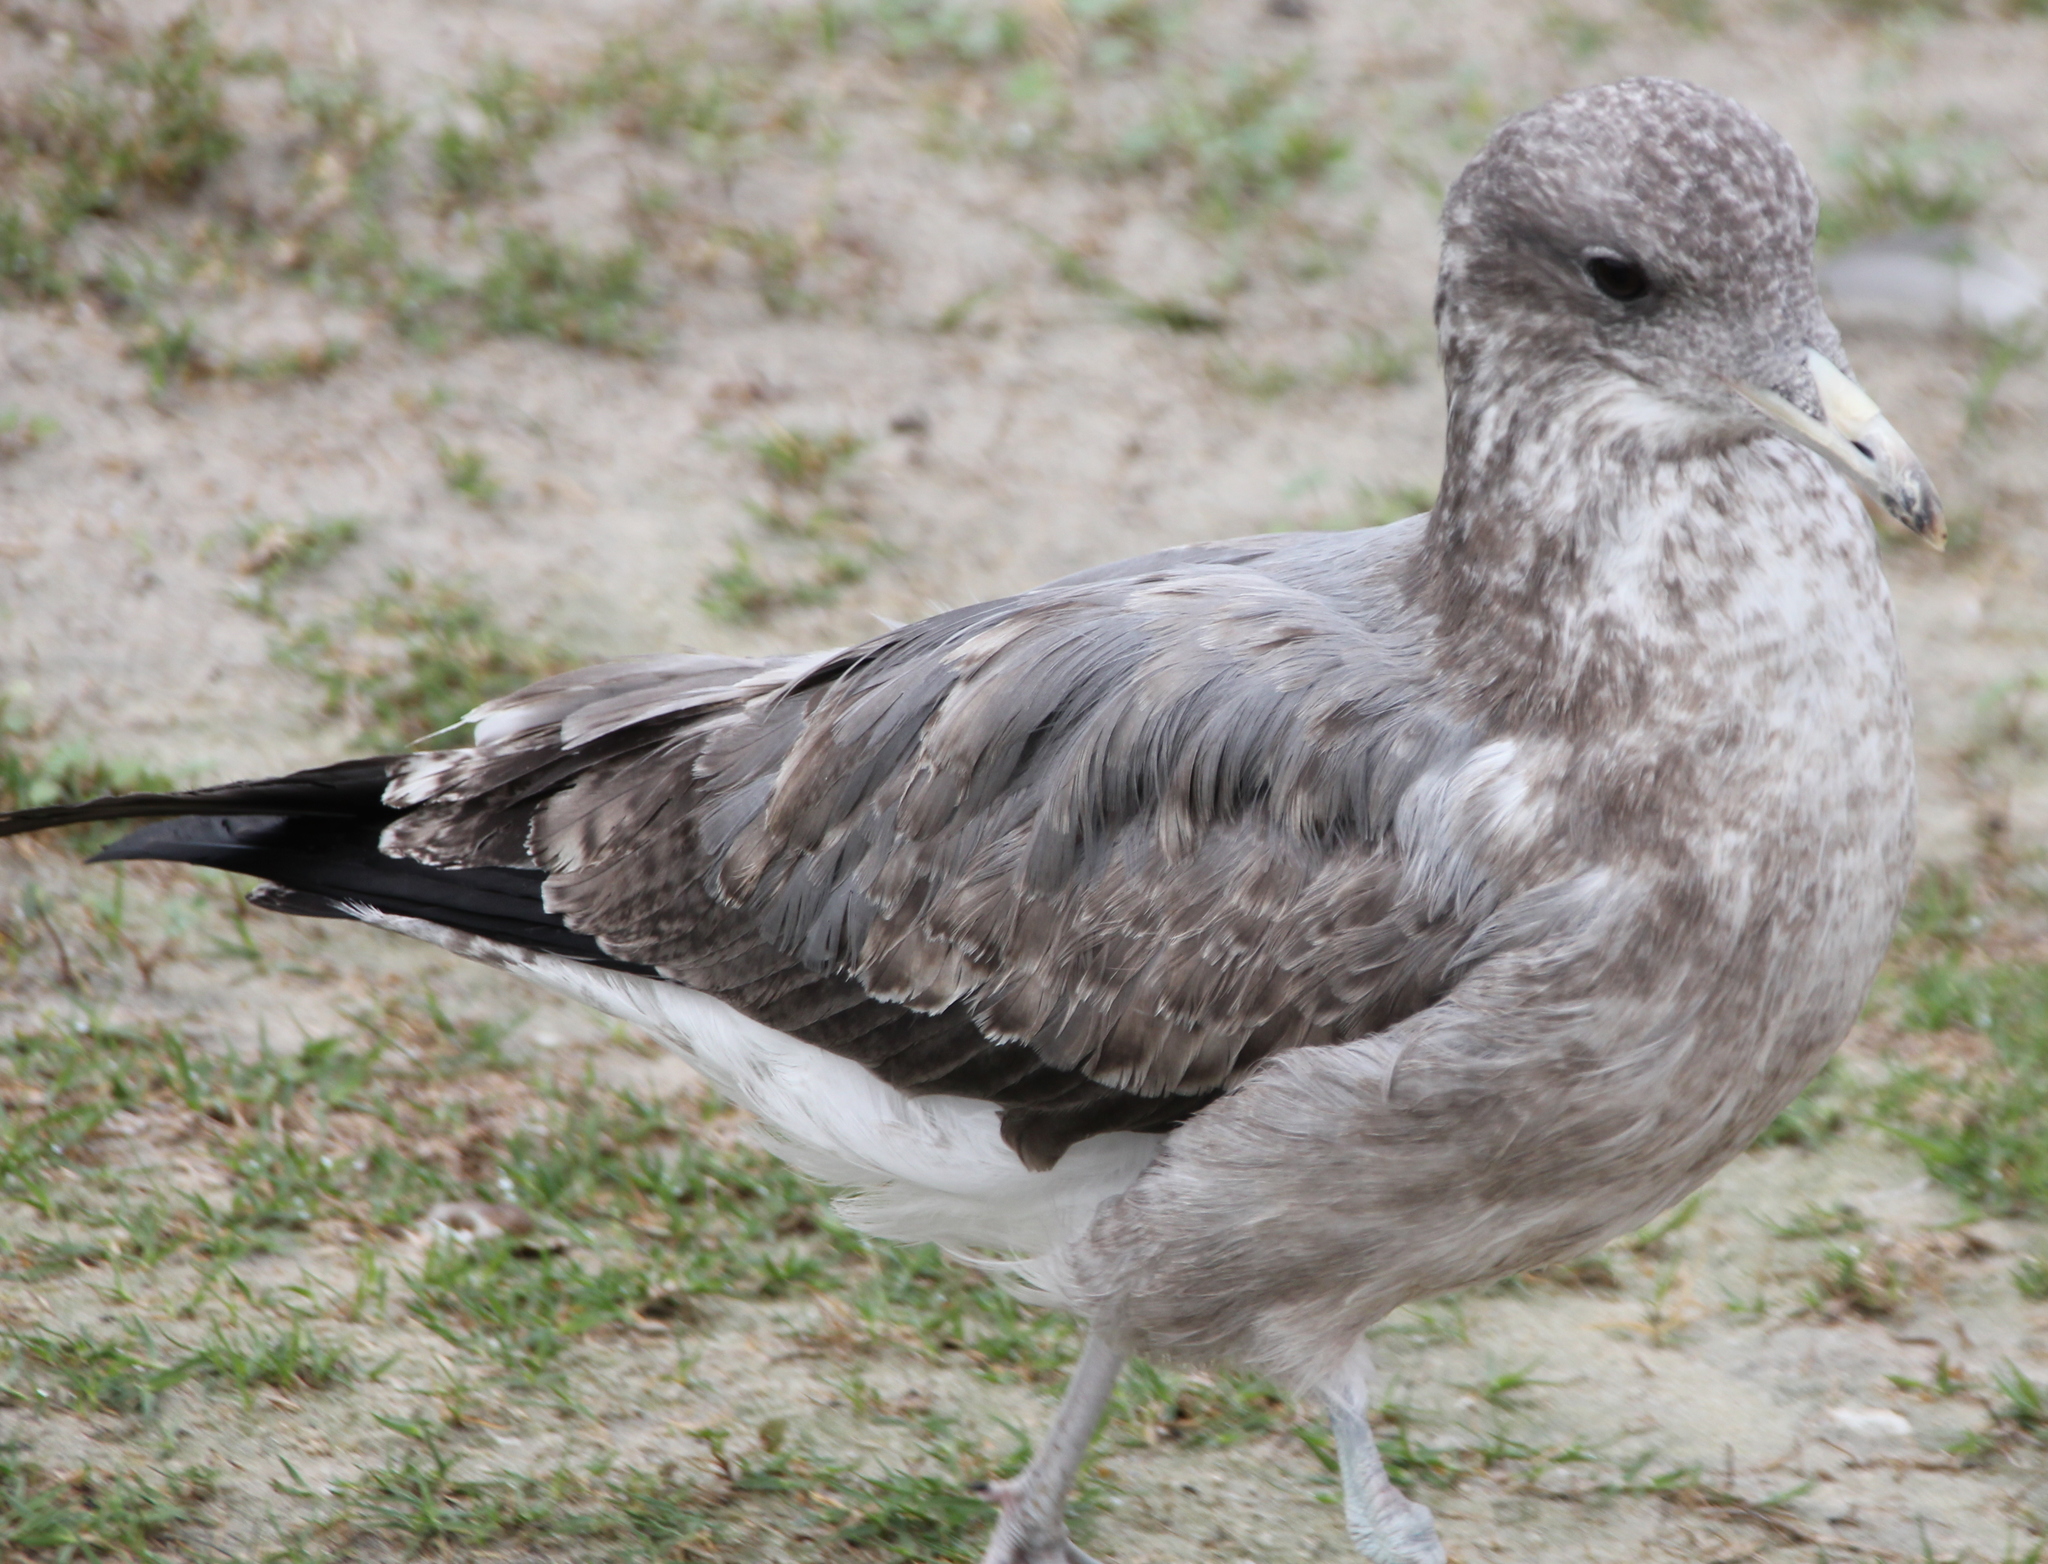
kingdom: Animalia
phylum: Chordata
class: Aves
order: Charadriiformes
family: Laridae
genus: Larus
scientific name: Larus californicus
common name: California gull
